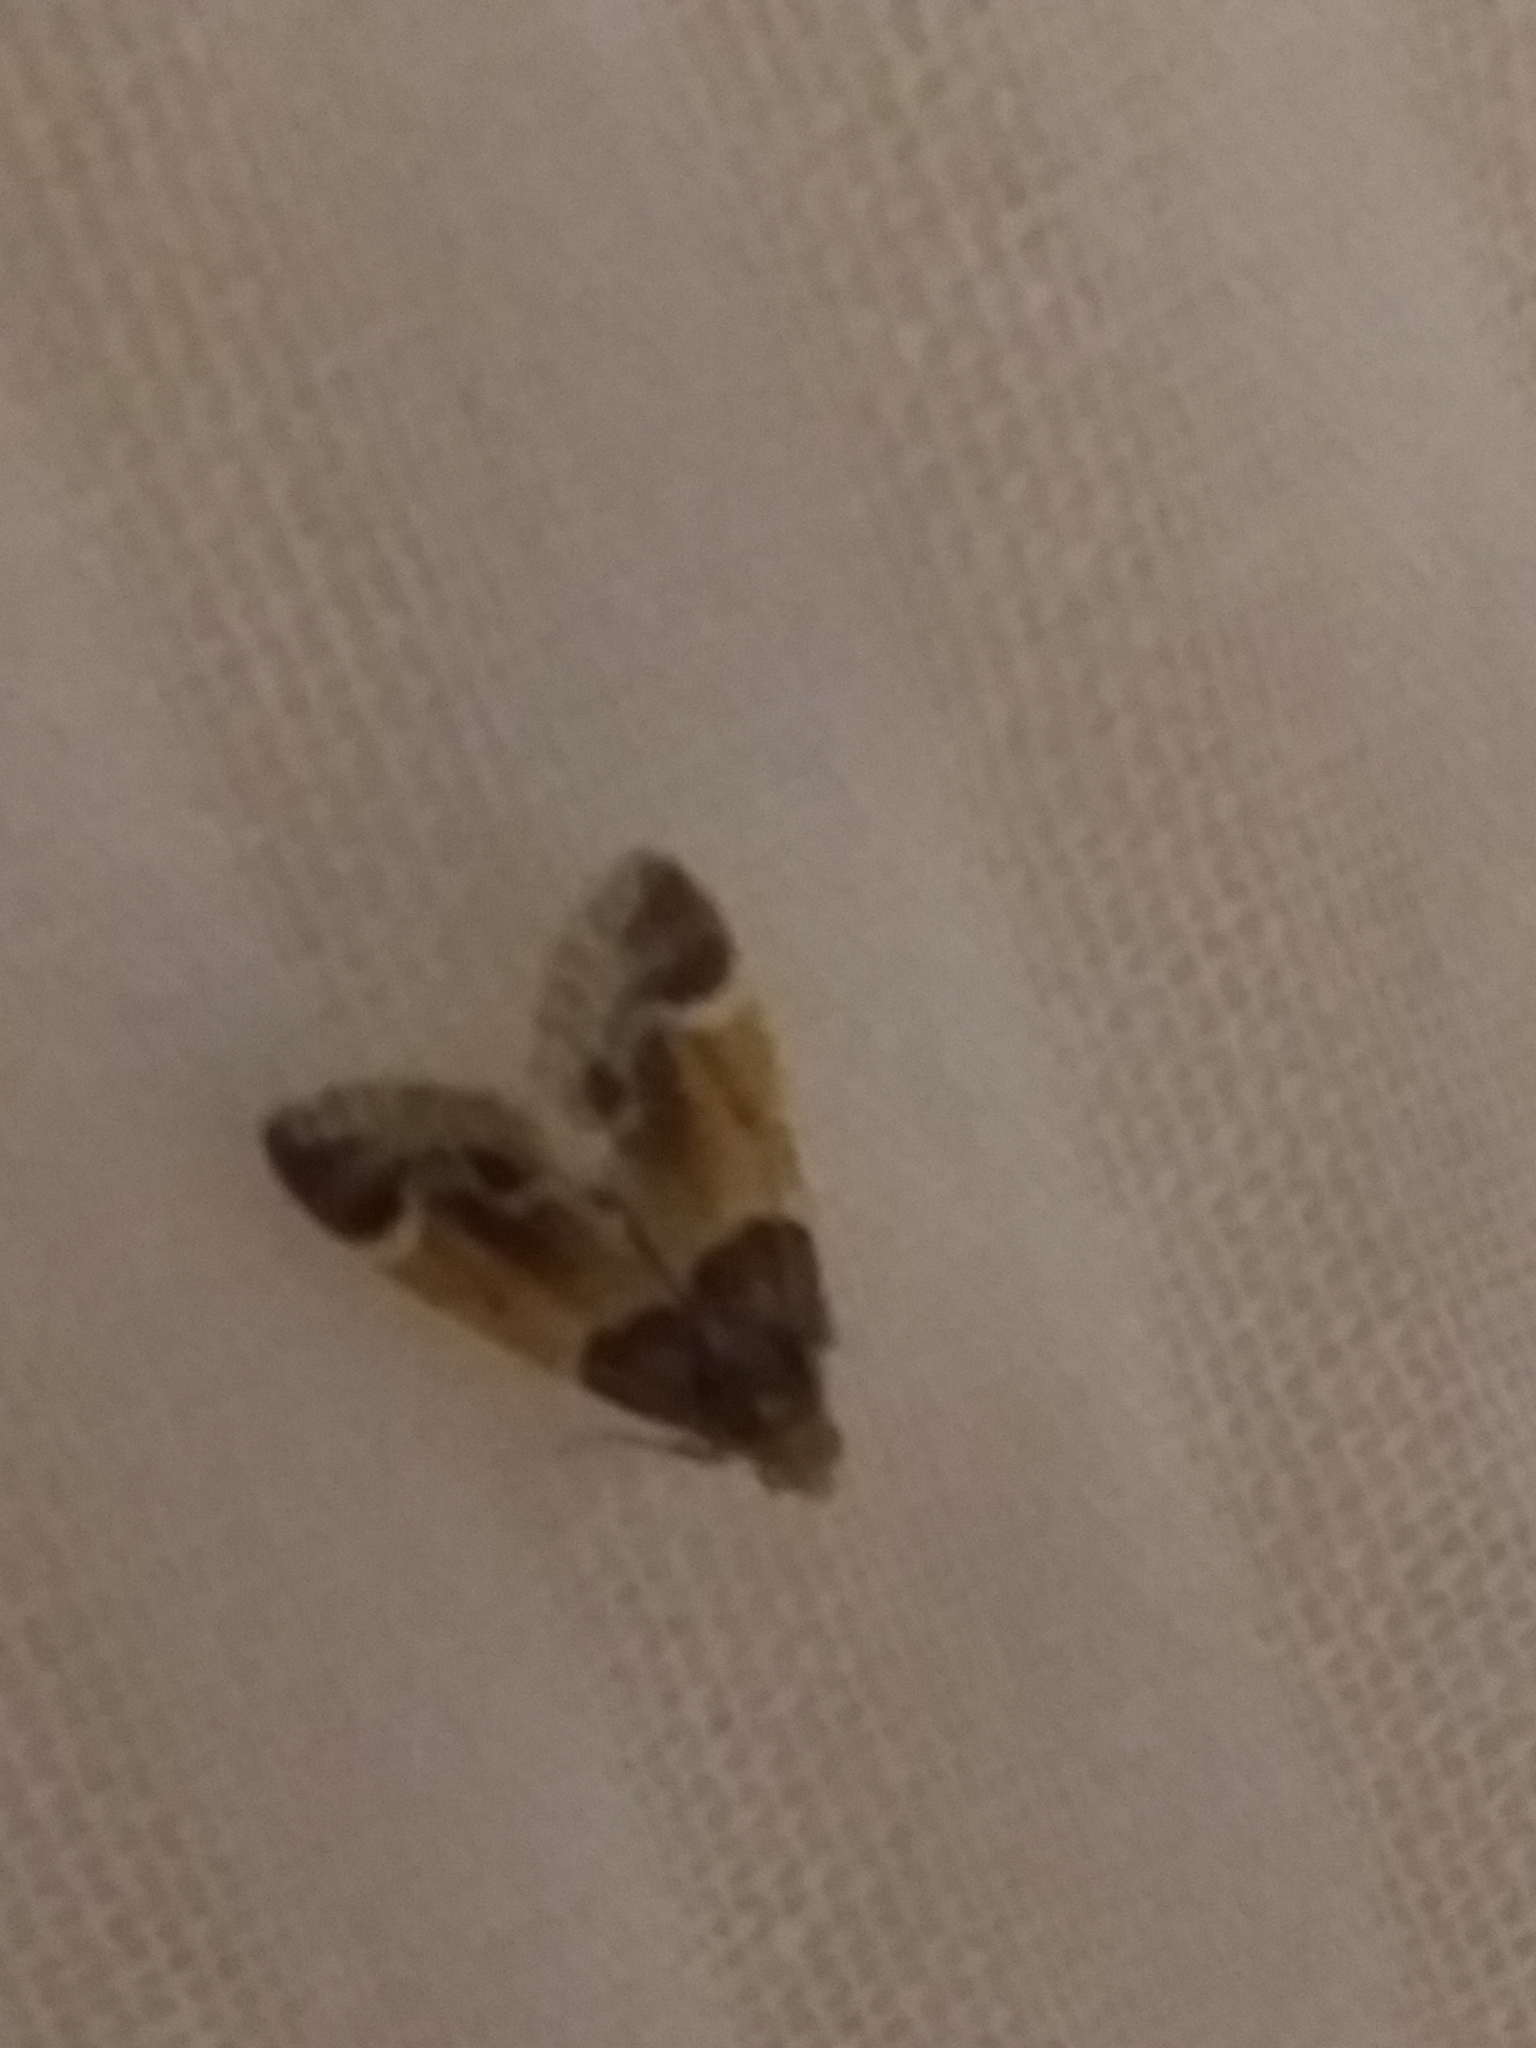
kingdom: Animalia
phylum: Arthropoda
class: Insecta
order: Lepidoptera
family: Pyralidae
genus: Pyralis
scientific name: Pyralis farinalis
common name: Meal moth
